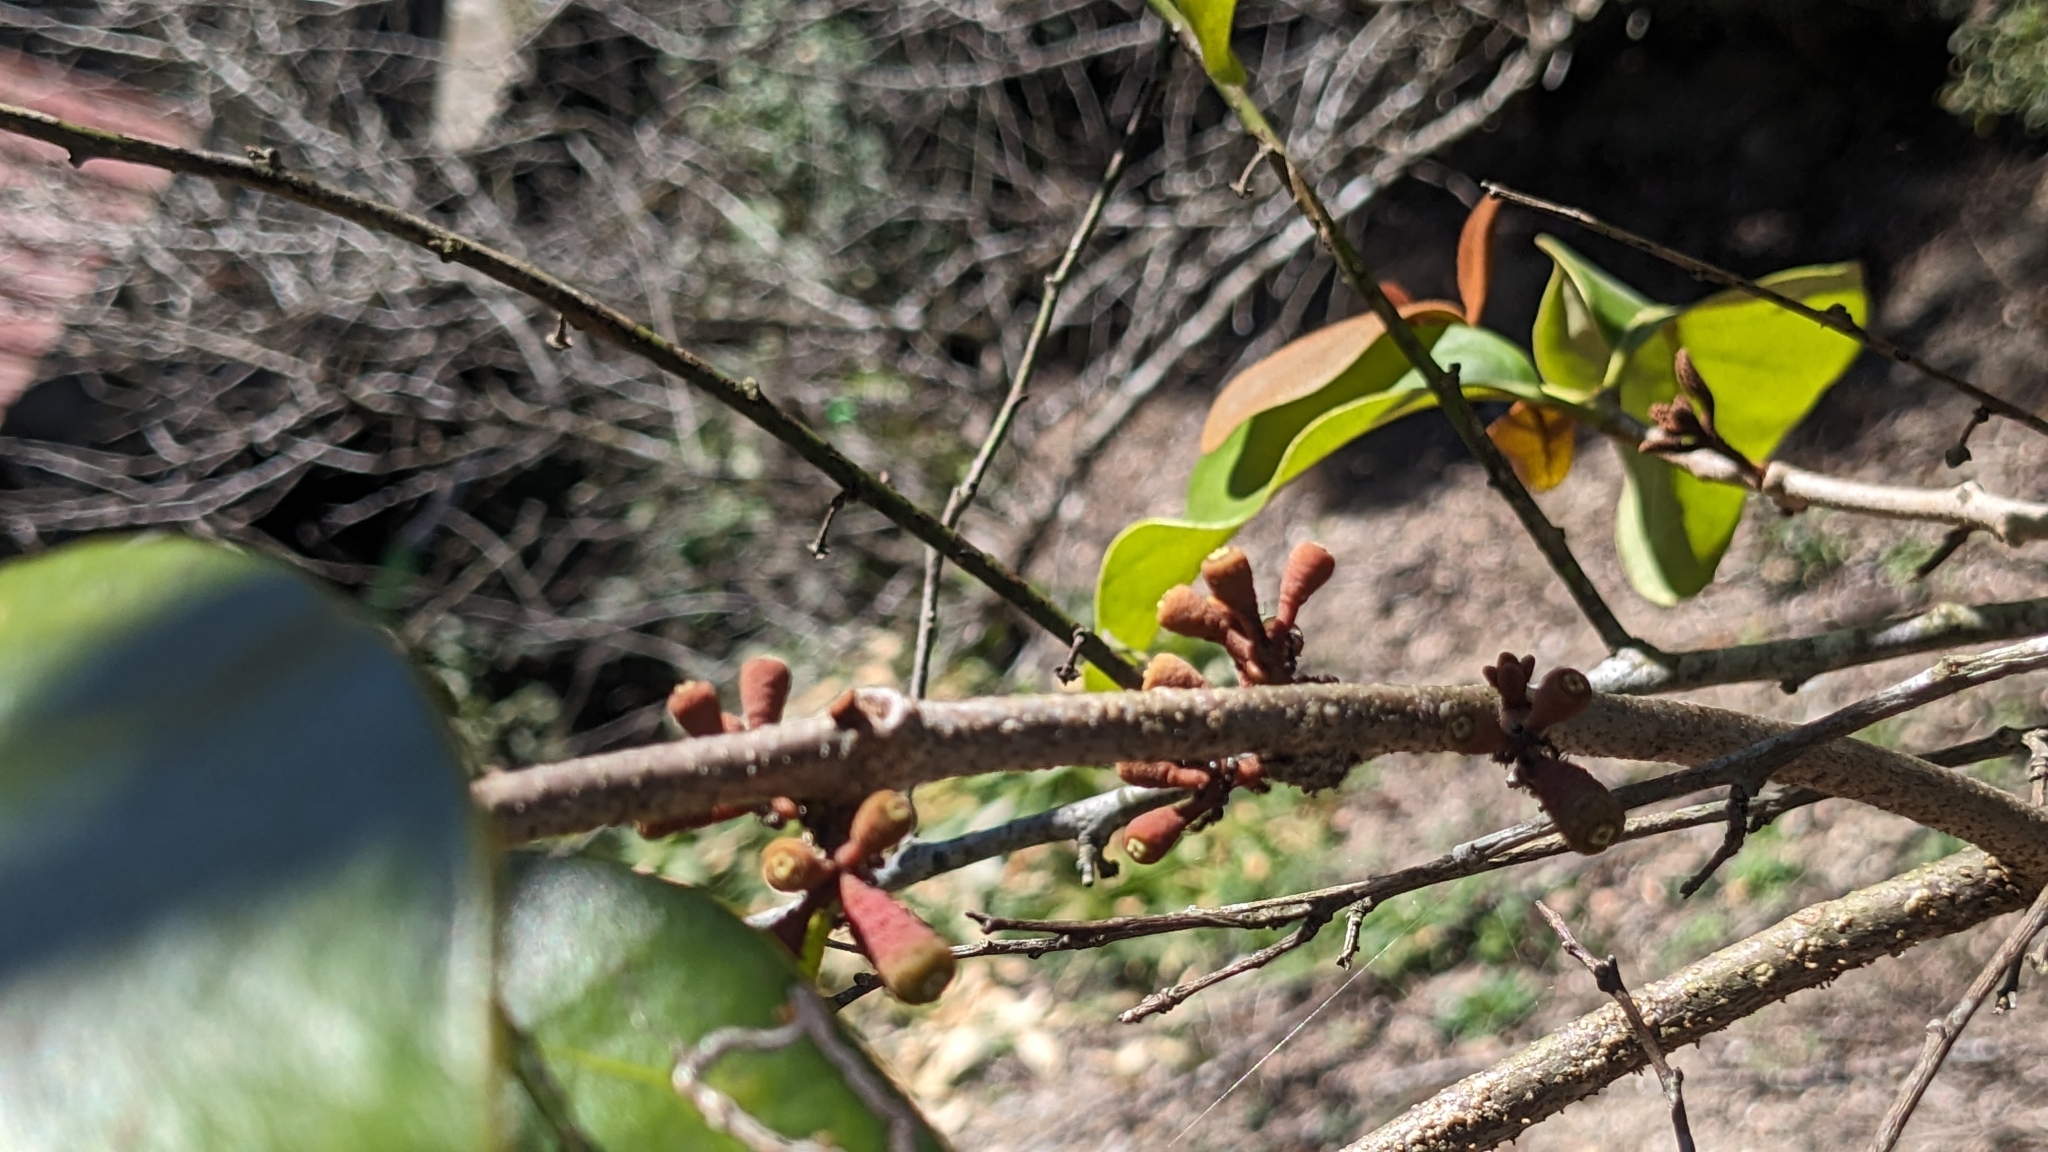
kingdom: Plantae
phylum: Tracheophyta
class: Magnoliopsida
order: Santalales
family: Loranthaceae
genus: Taxillus
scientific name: Taxillus liquidambaricola
